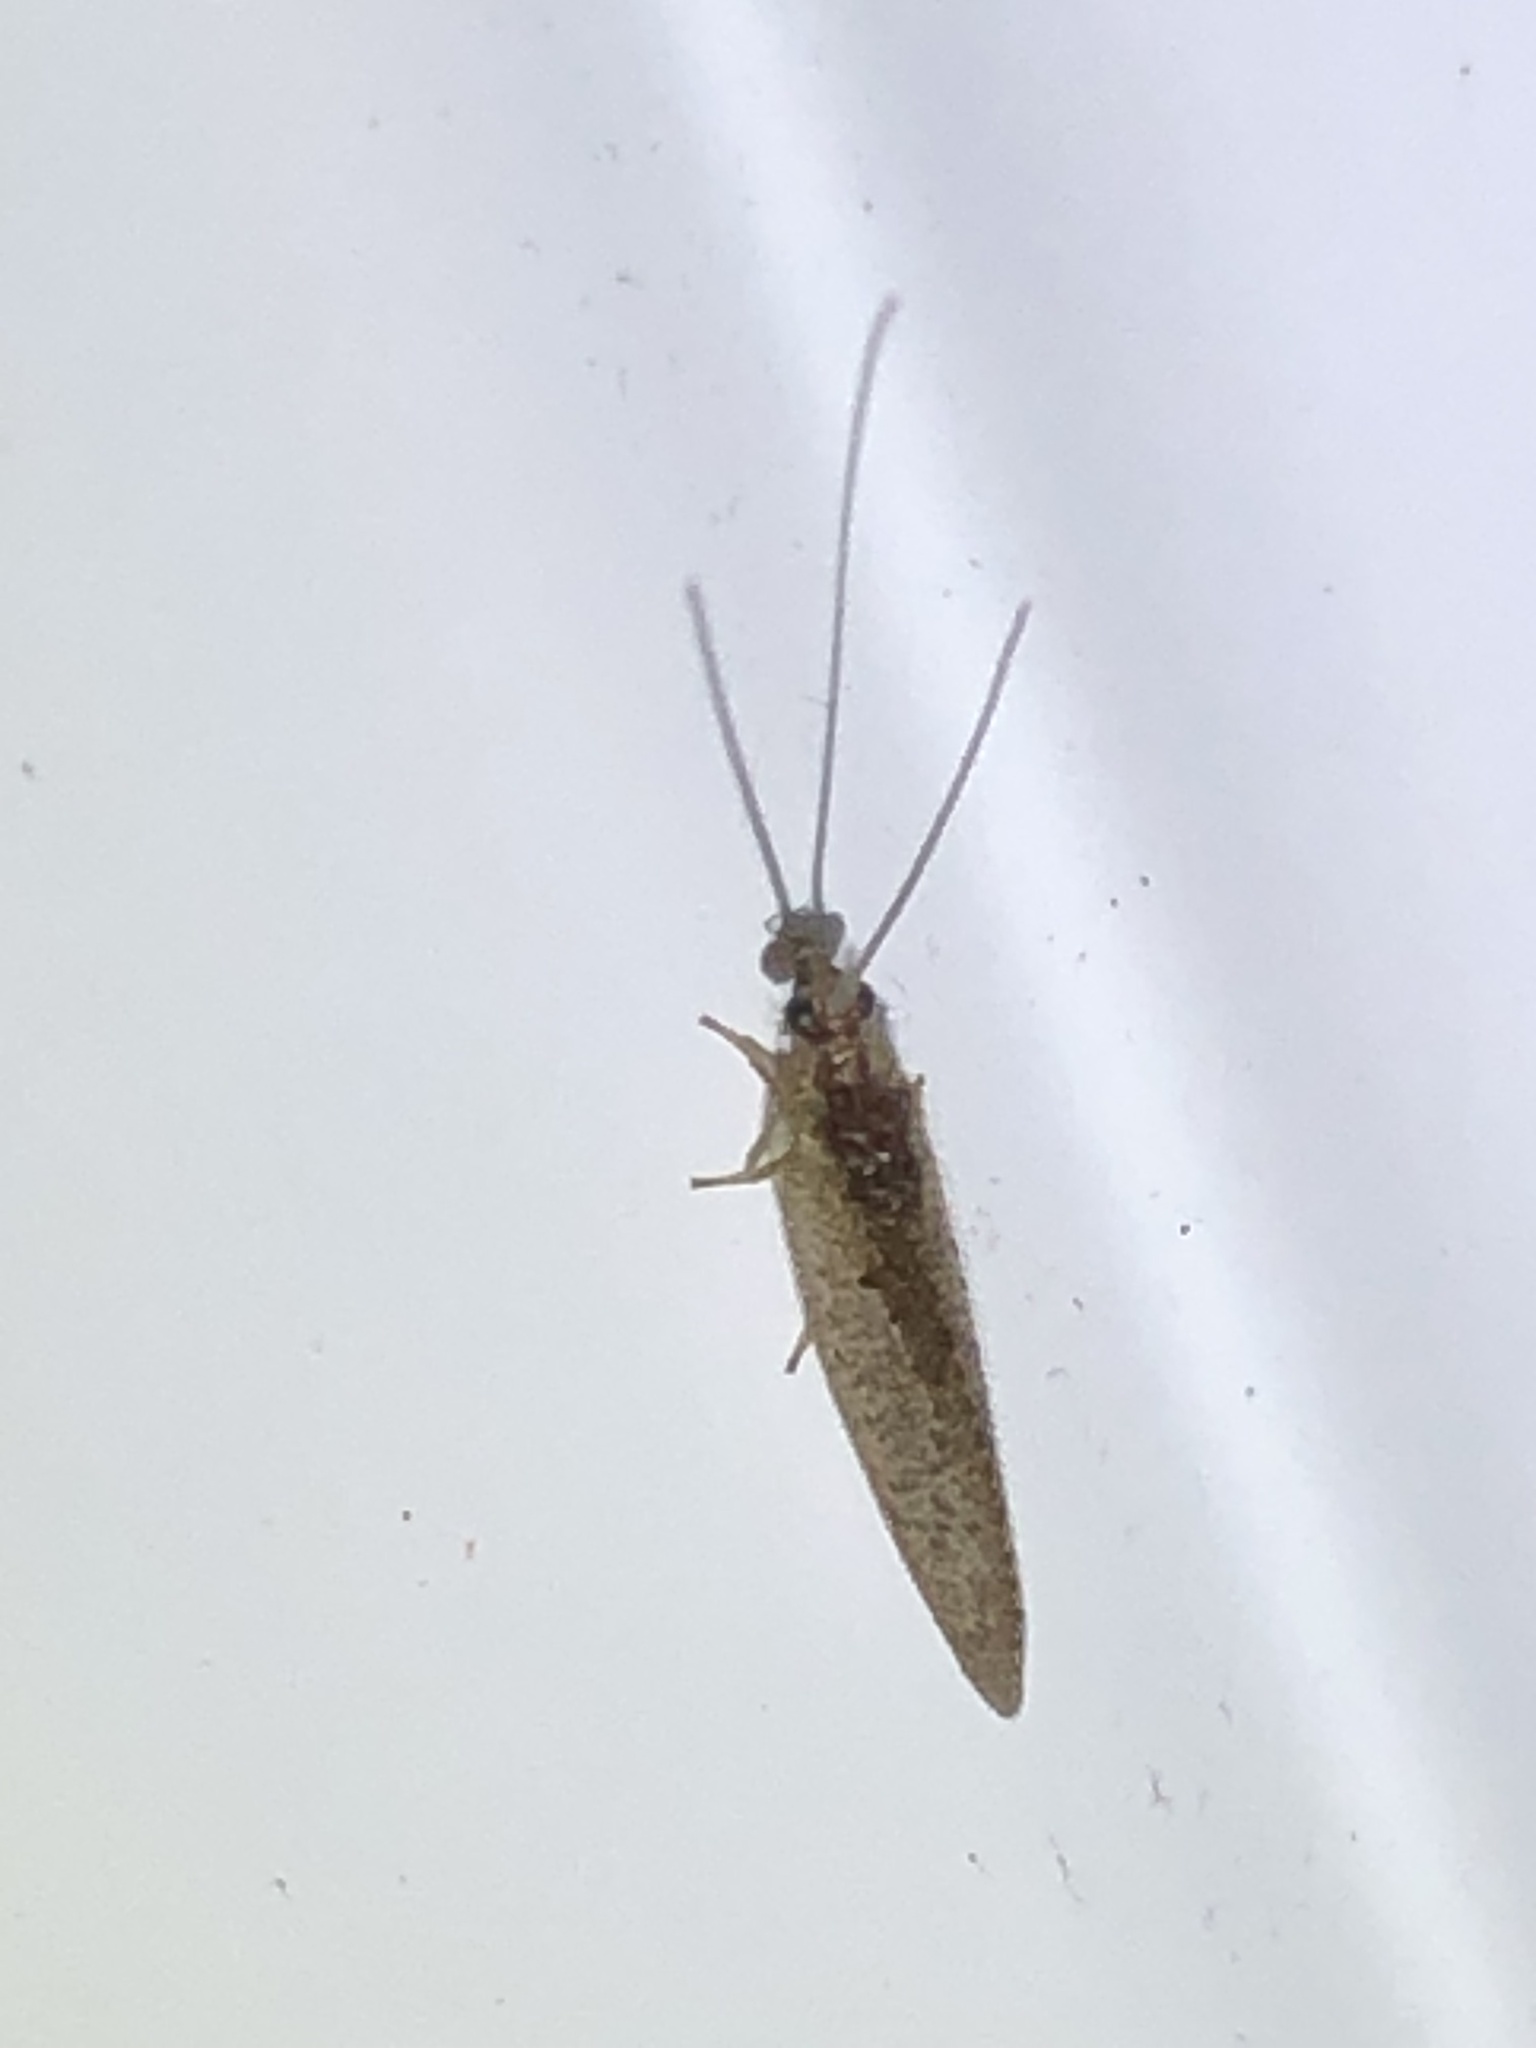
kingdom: Animalia
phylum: Arthropoda
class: Insecta
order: Neuroptera
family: Hemerobiidae
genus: Hemerobius
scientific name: Hemerobius stigma
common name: Brown pine lacewing
